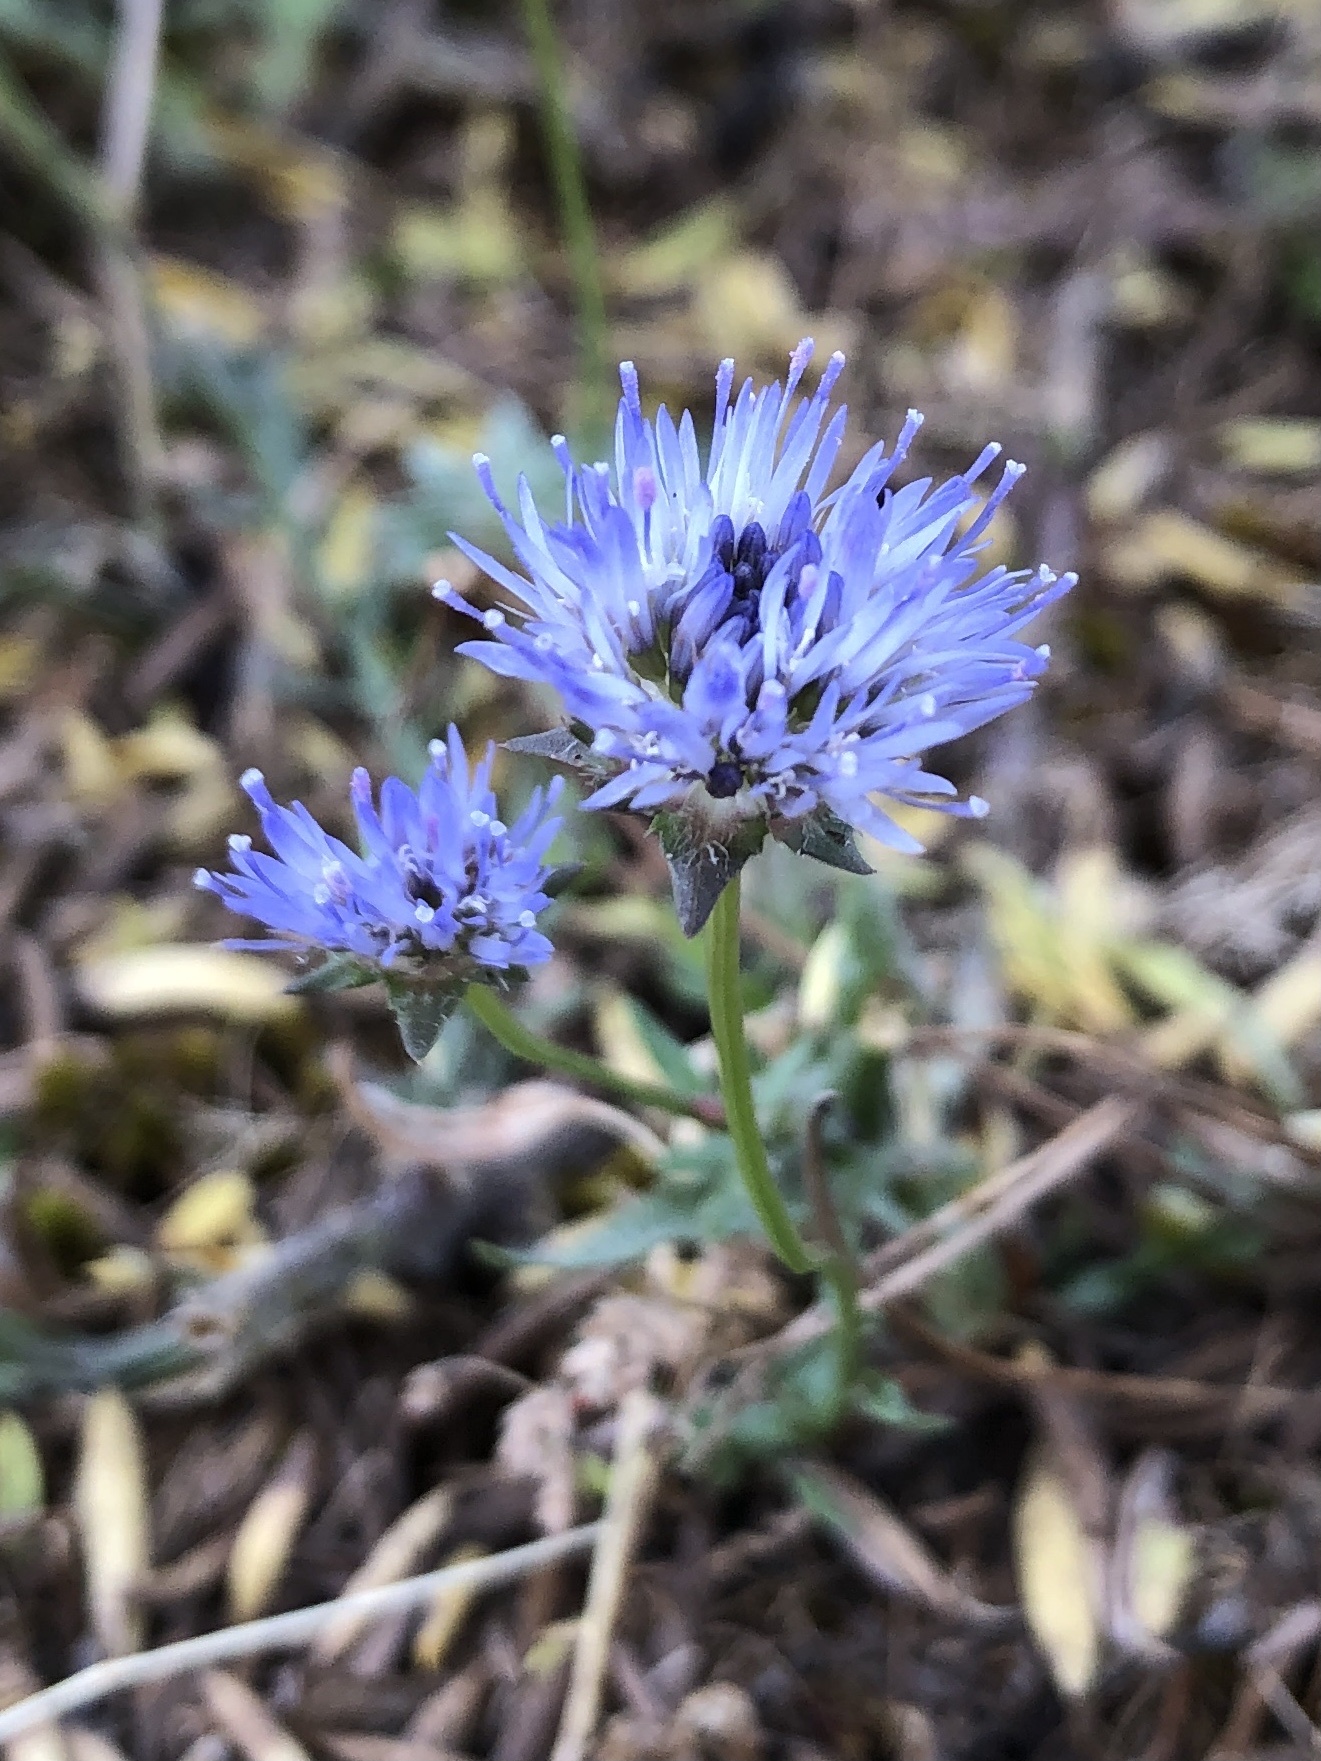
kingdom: Plantae
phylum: Tracheophyta
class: Magnoliopsida
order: Asterales
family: Campanulaceae
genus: Jasione
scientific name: Jasione montana
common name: Sheep's-bit
